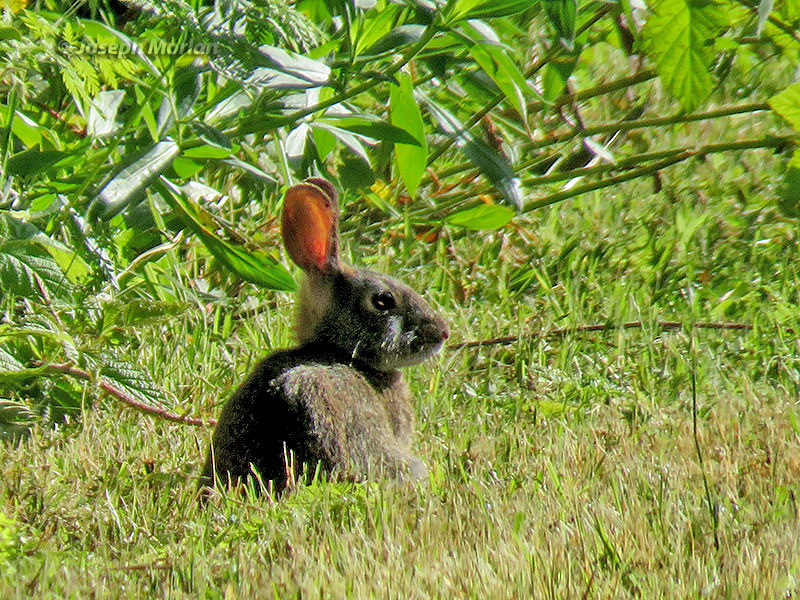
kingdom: Animalia
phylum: Chordata
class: Mammalia
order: Lagomorpha
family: Leporidae
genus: Sylvilagus
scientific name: Sylvilagus bachmani
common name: Brush rabbit
